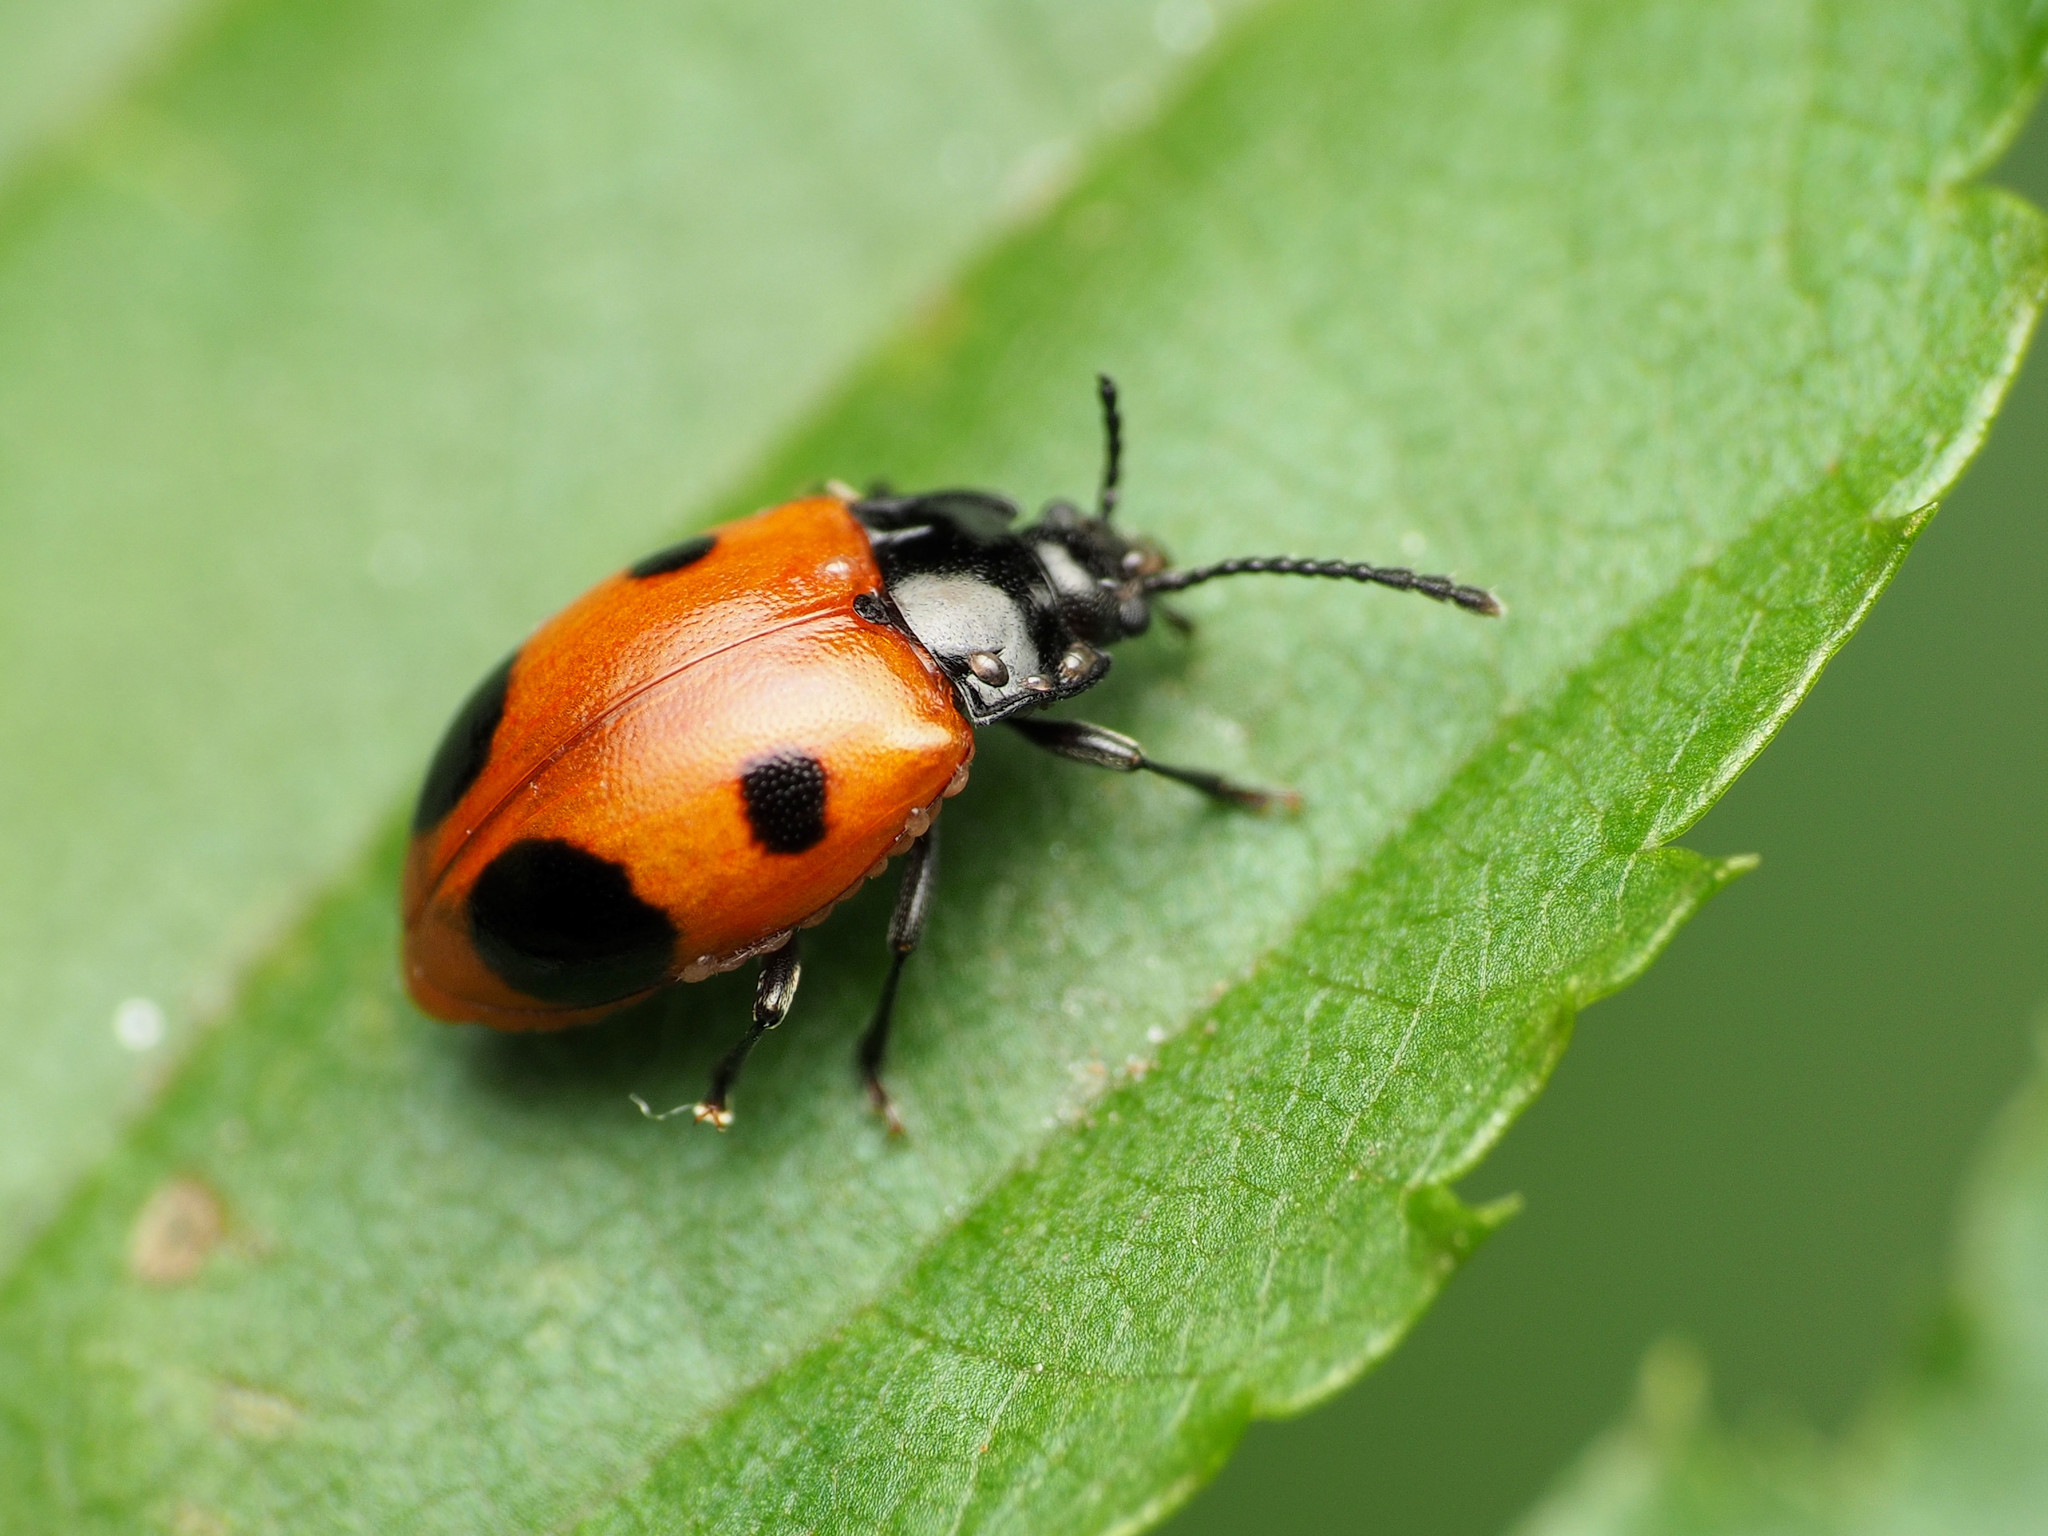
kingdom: Animalia
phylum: Arthropoda
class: Insecta
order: Coleoptera
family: Endomychidae
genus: Endomychus
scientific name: Endomychus biguttatus
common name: Handsome fungus beetle
